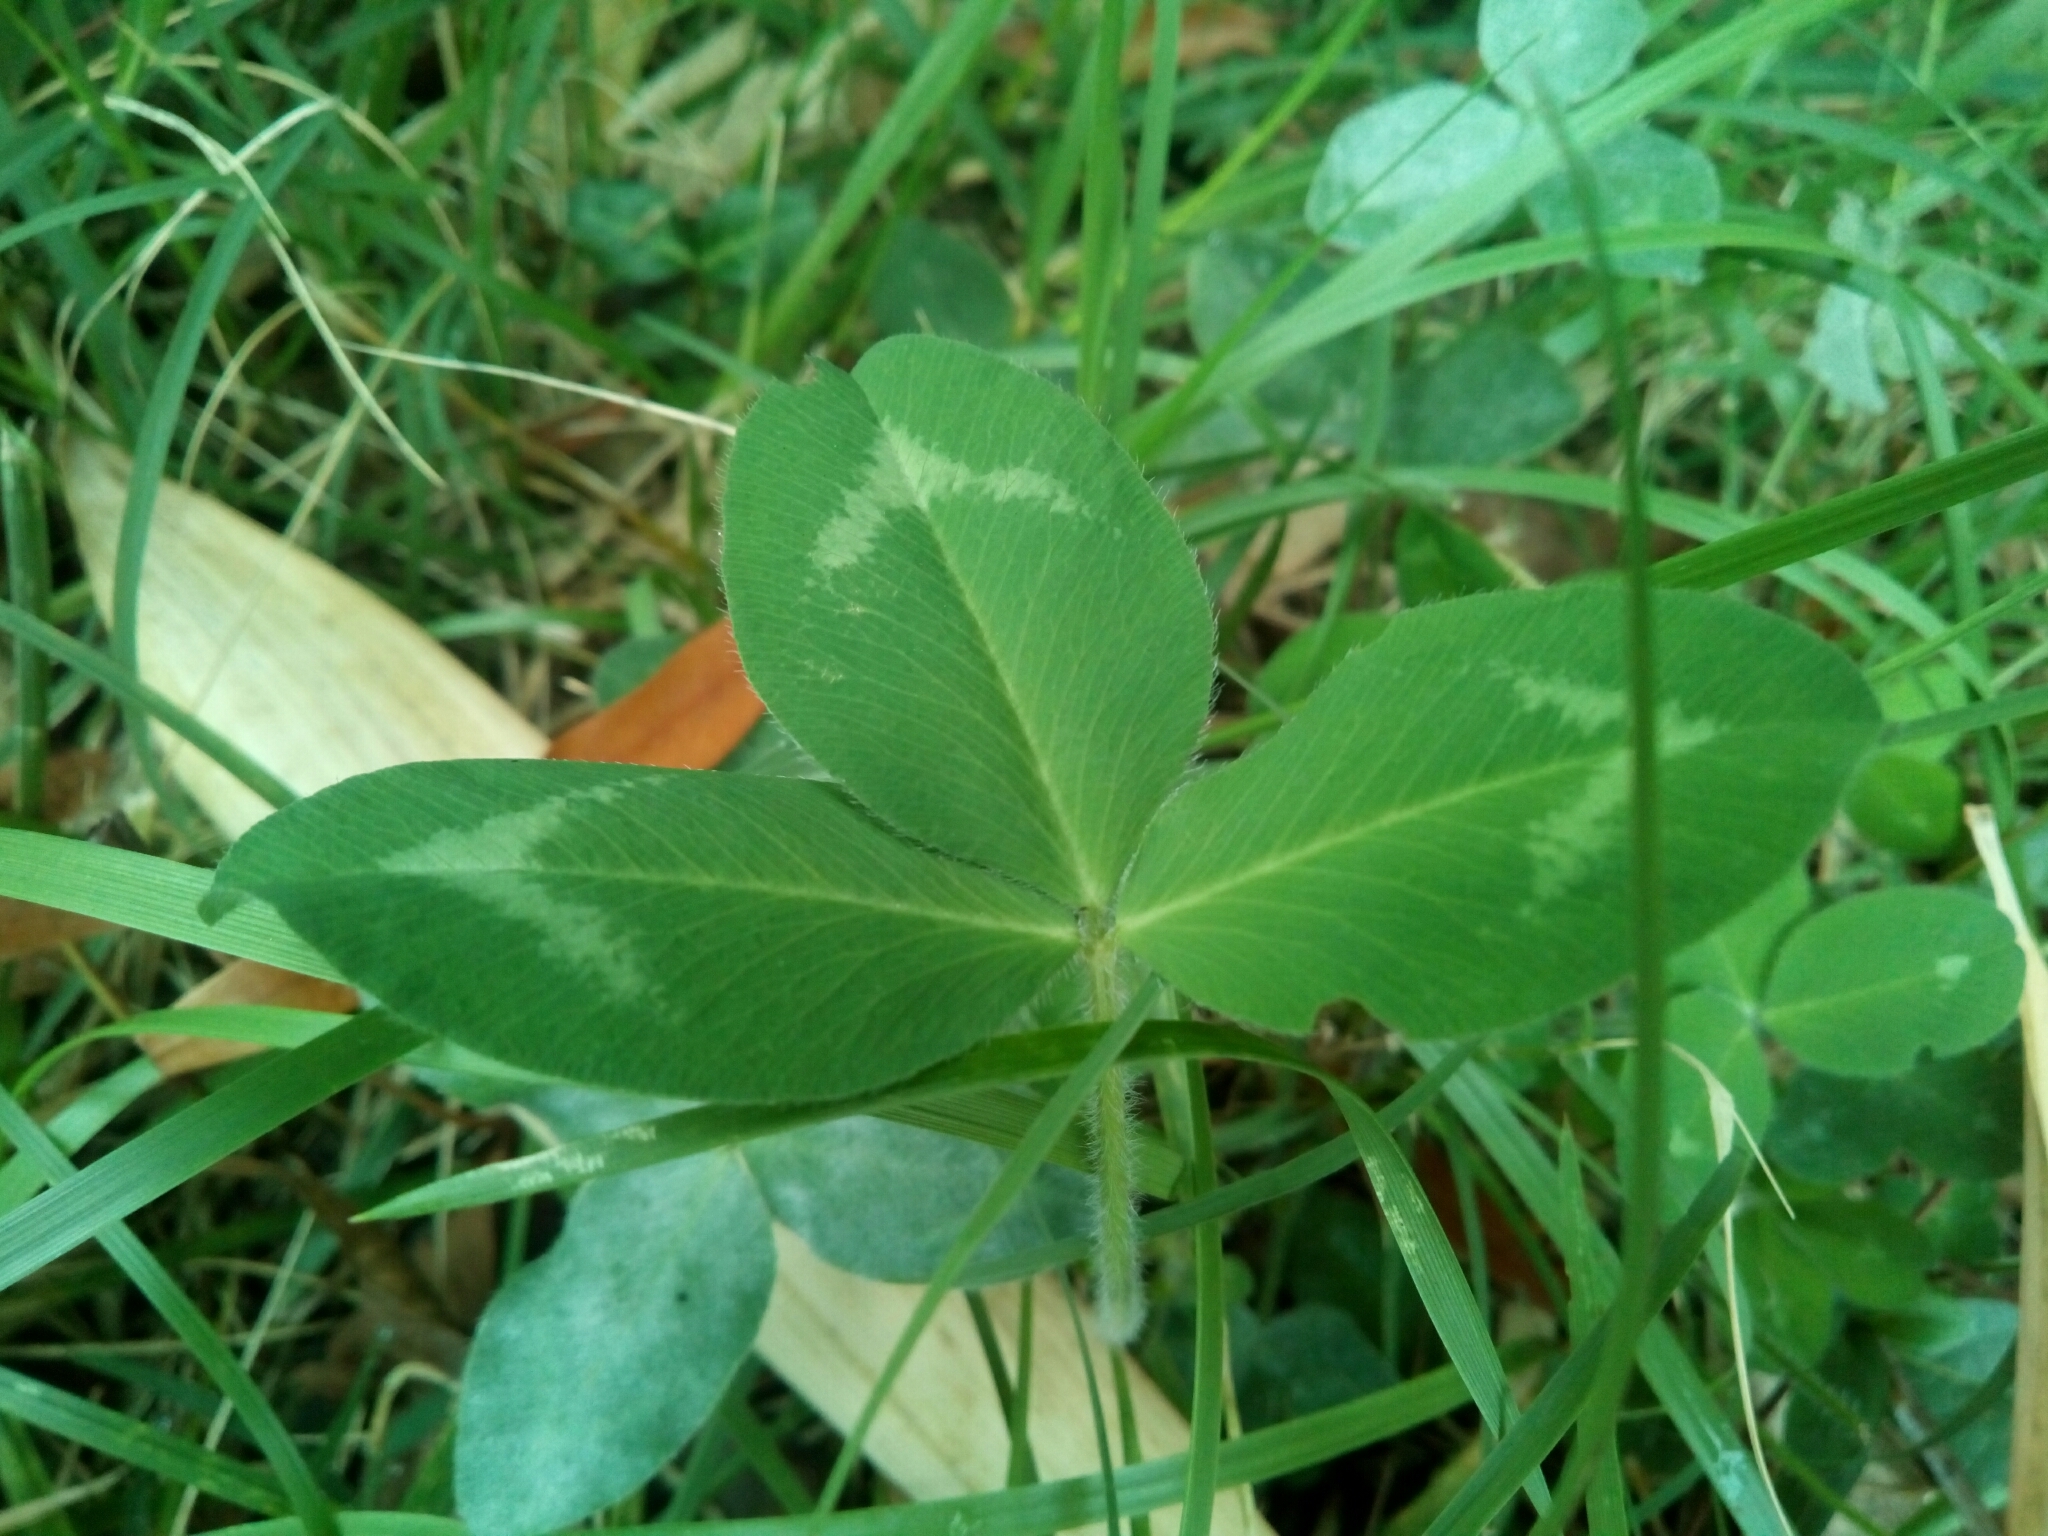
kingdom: Plantae
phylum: Tracheophyta
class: Magnoliopsida
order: Fabales
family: Fabaceae
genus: Trifolium
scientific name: Trifolium pratense
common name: Red clover
